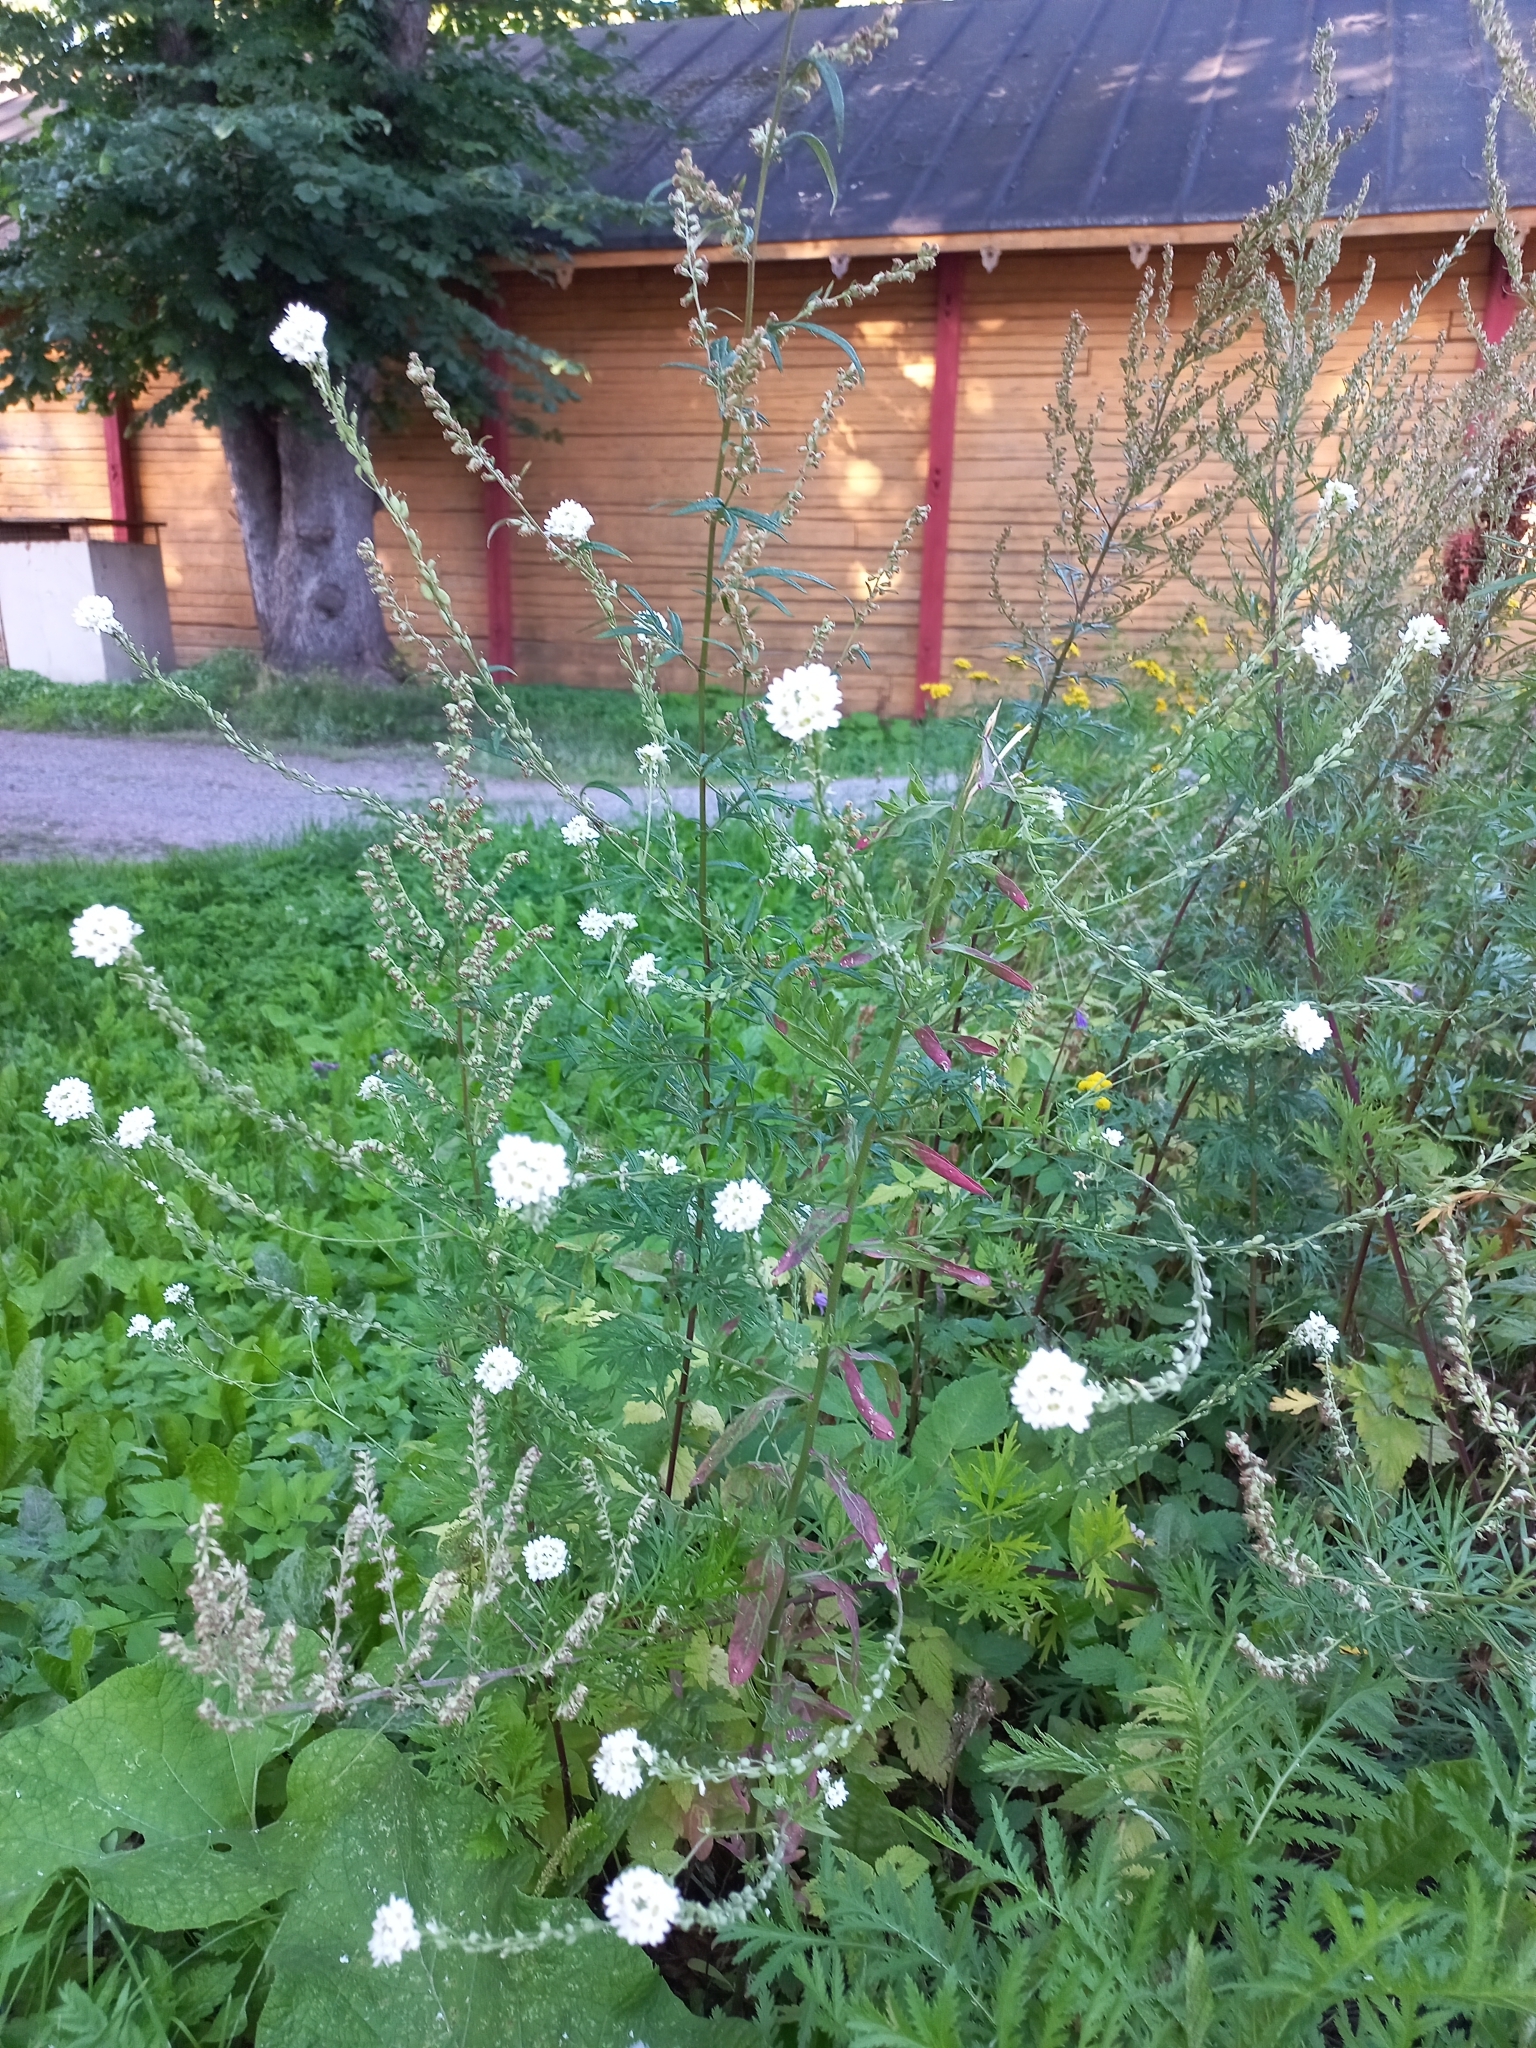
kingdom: Plantae
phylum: Tracheophyta
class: Magnoliopsida
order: Brassicales
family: Brassicaceae
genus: Berteroa
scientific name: Berteroa incana
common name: Hoary alison
